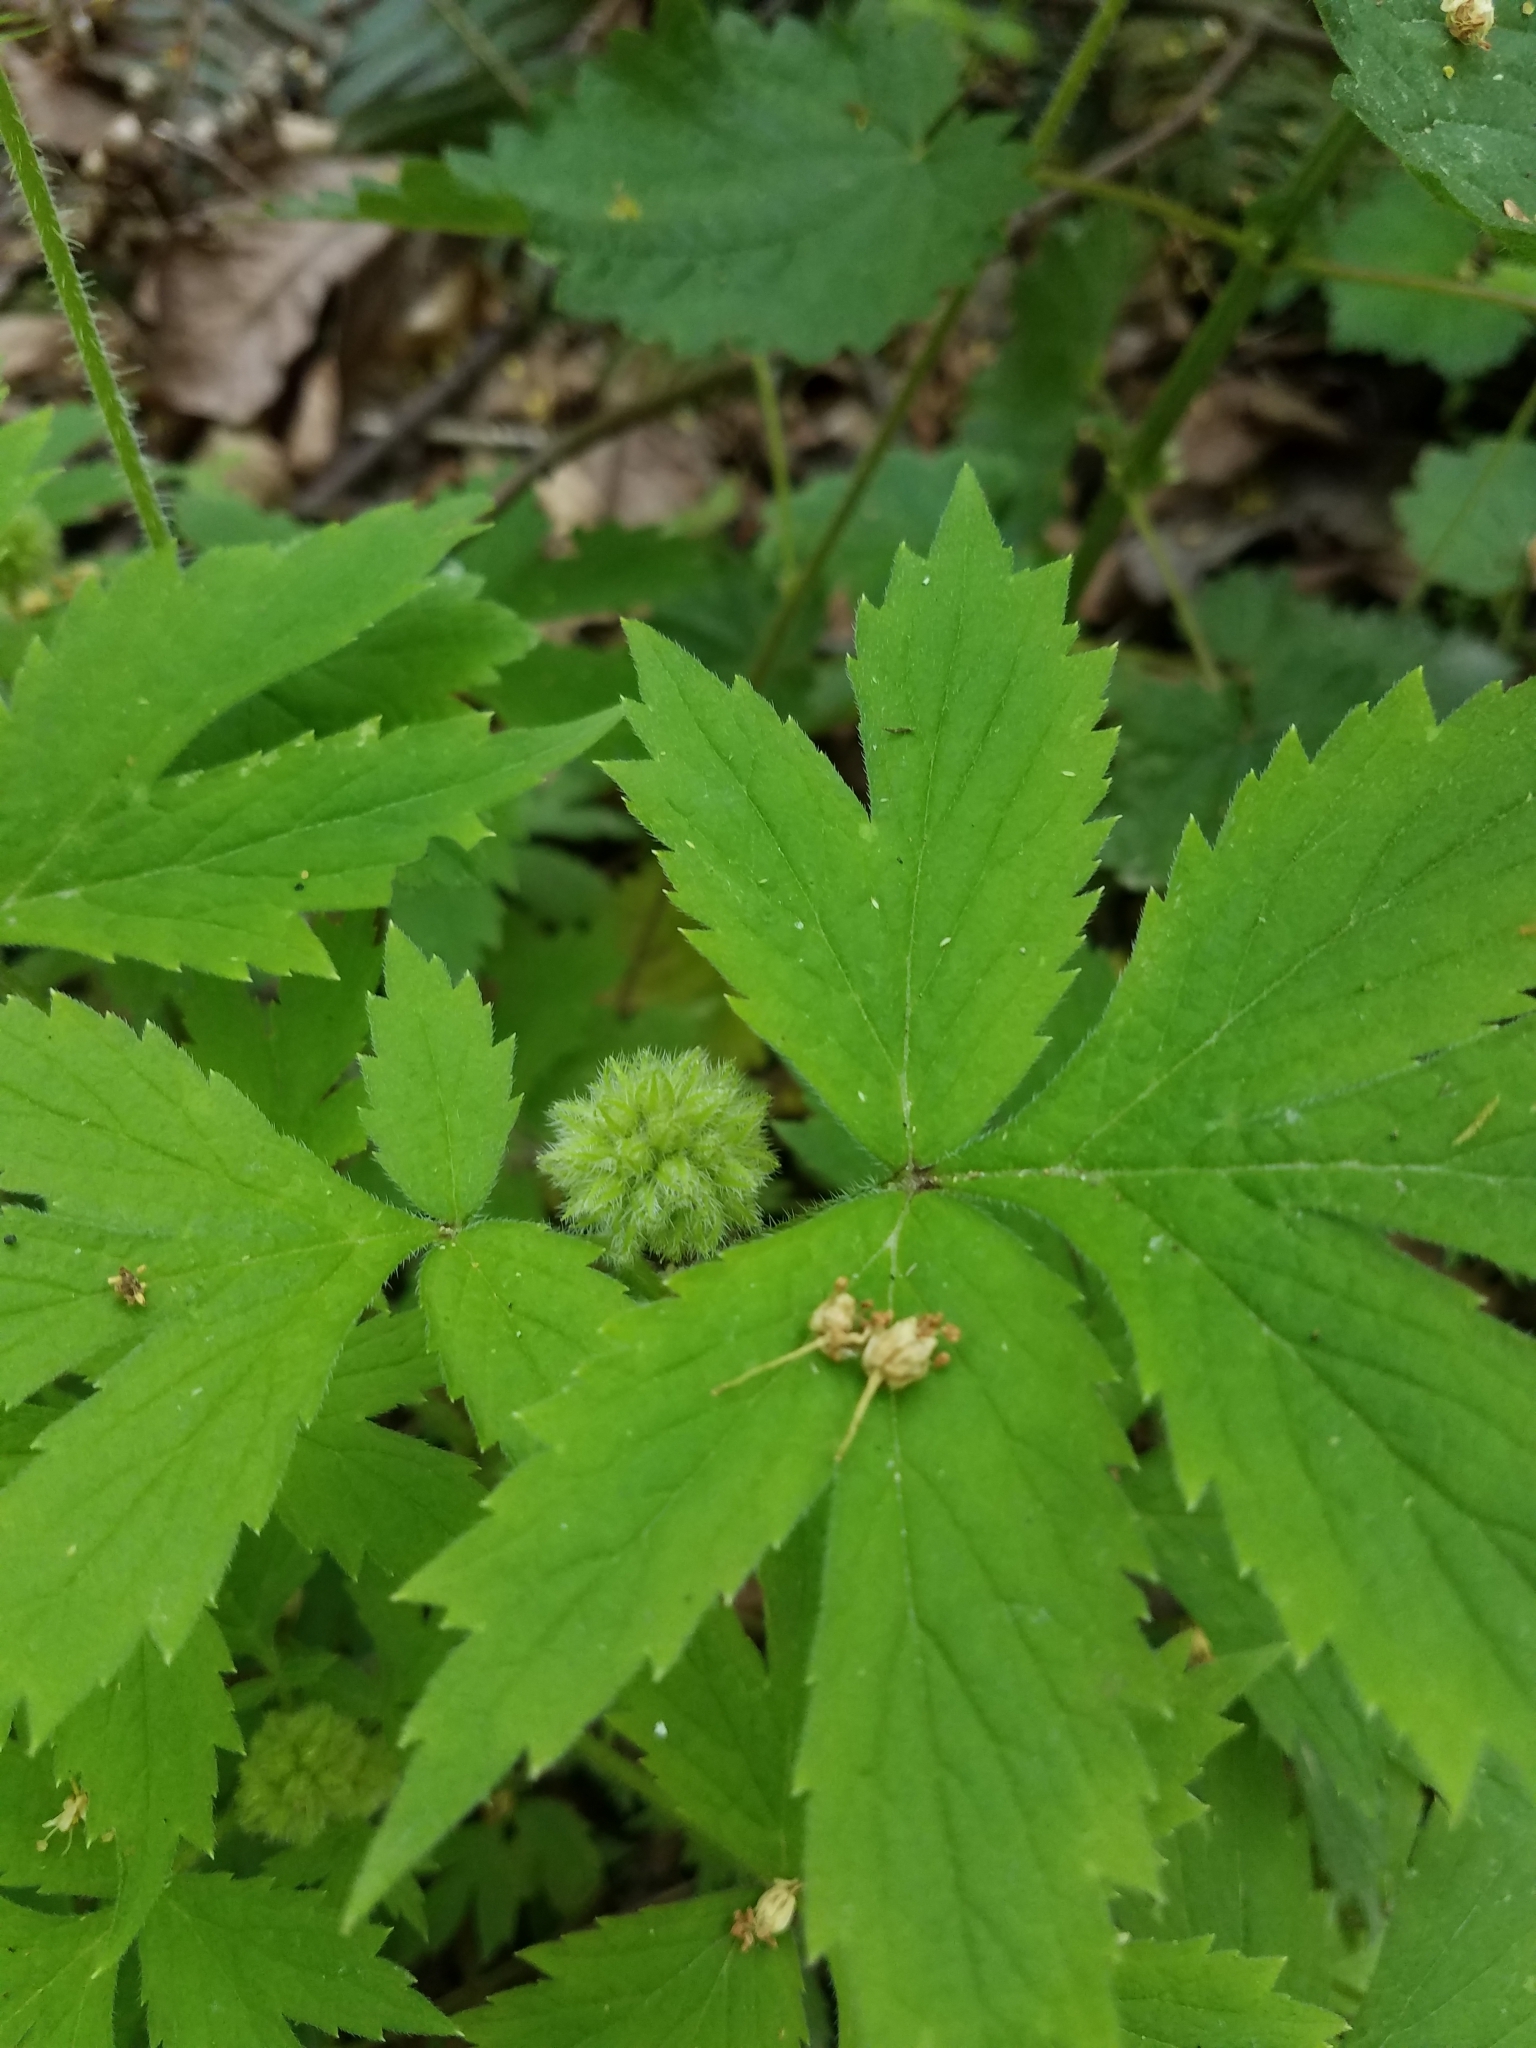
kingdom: Plantae
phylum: Tracheophyta
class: Magnoliopsida
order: Boraginales
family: Hydrophyllaceae
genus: Hydrophyllum
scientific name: Hydrophyllum tenuipes
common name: Pacific waterleaf
